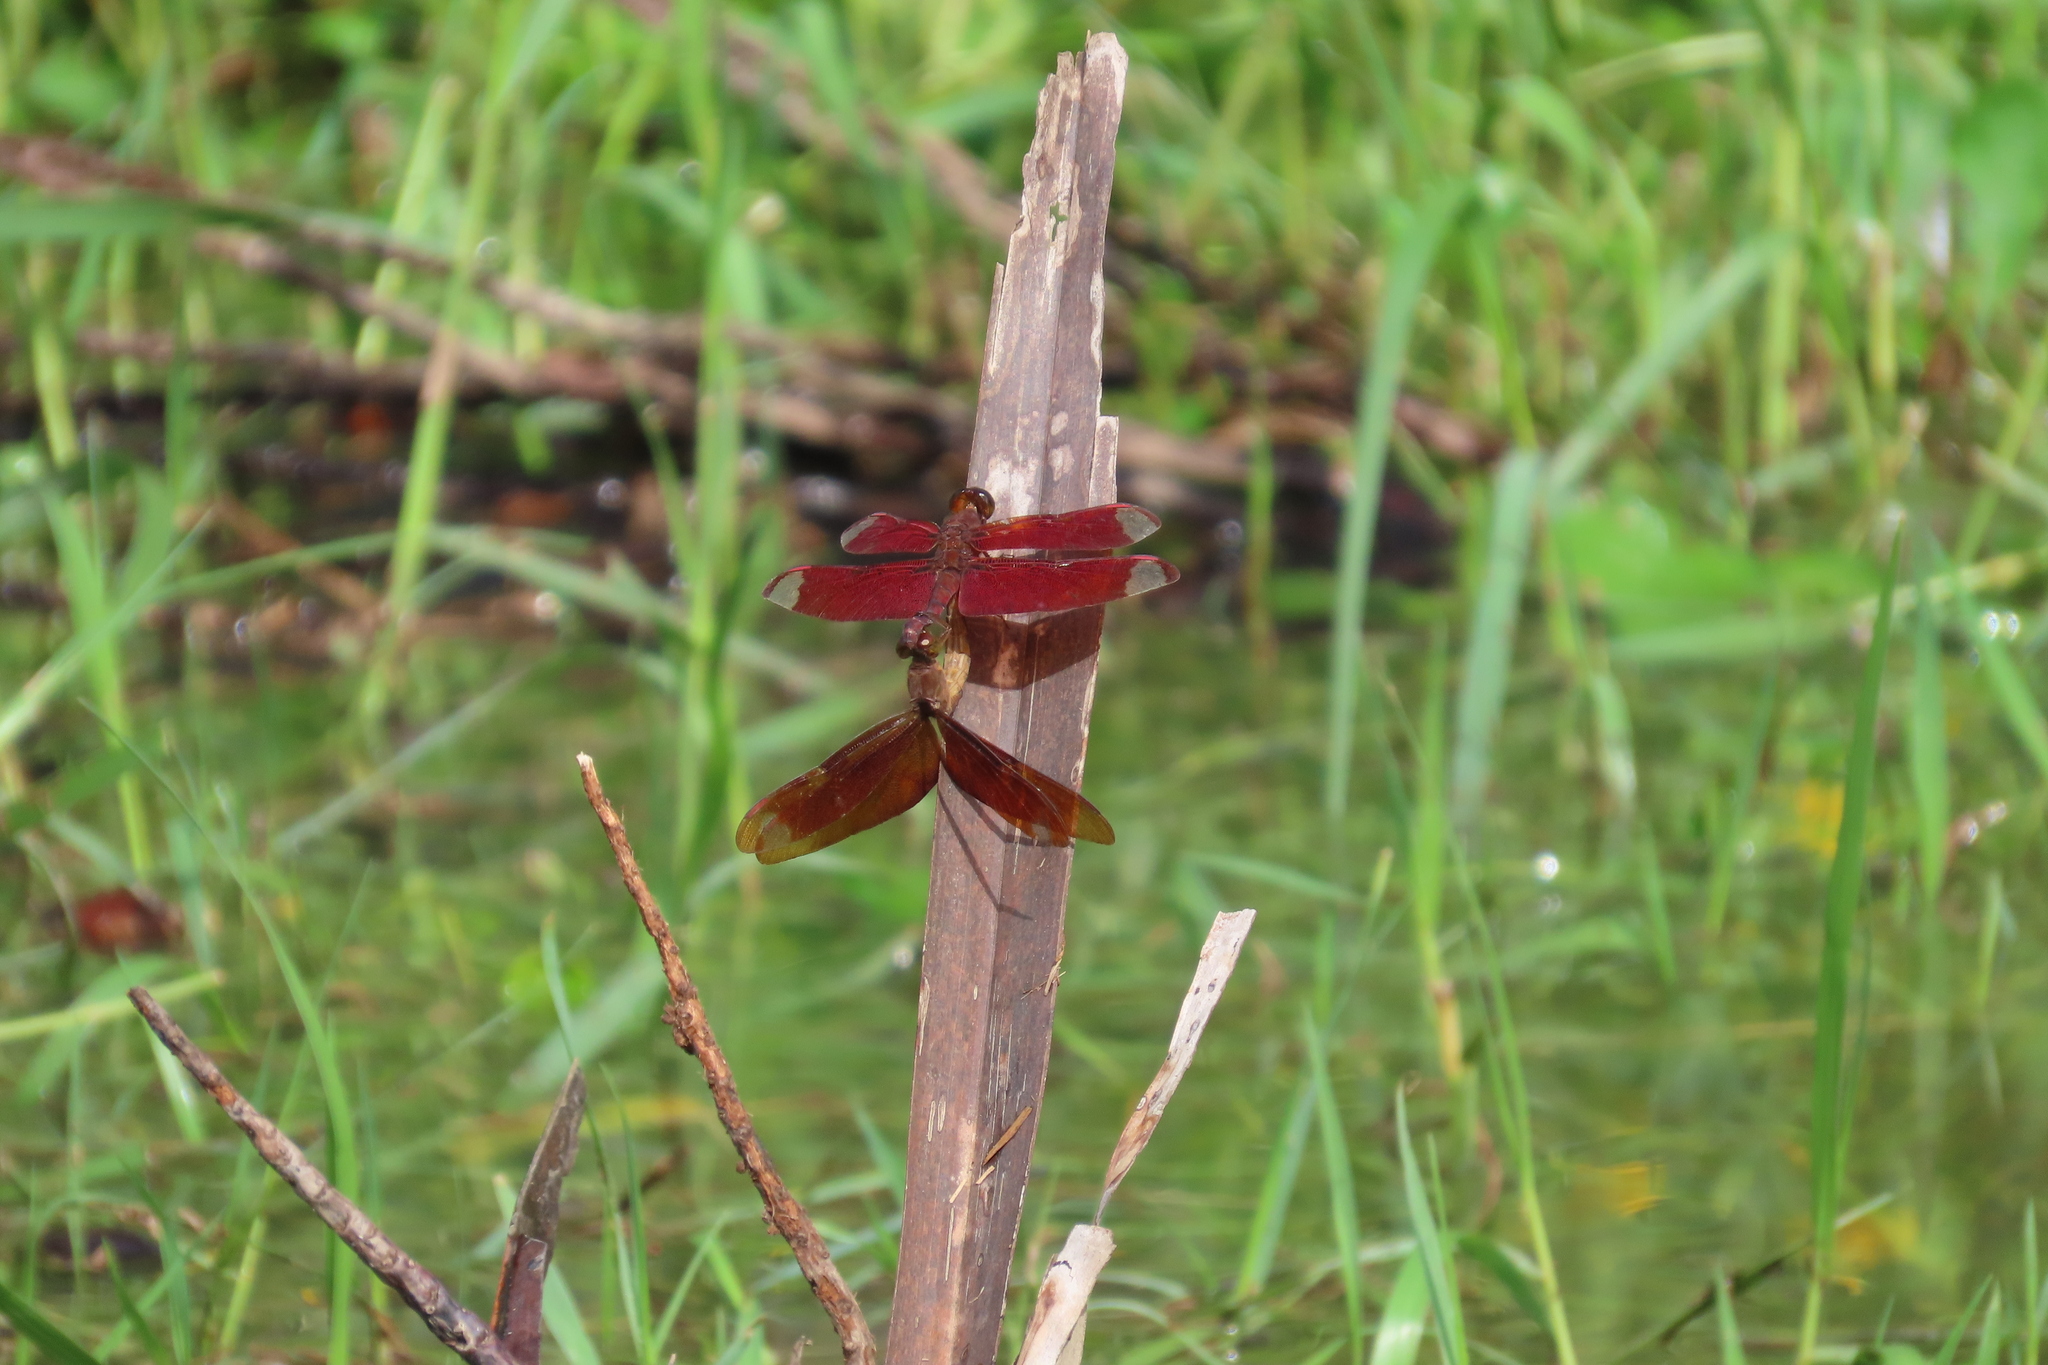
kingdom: Animalia
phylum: Arthropoda
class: Insecta
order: Odonata
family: Libellulidae
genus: Neurothemis
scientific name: Neurothemis fulvia
